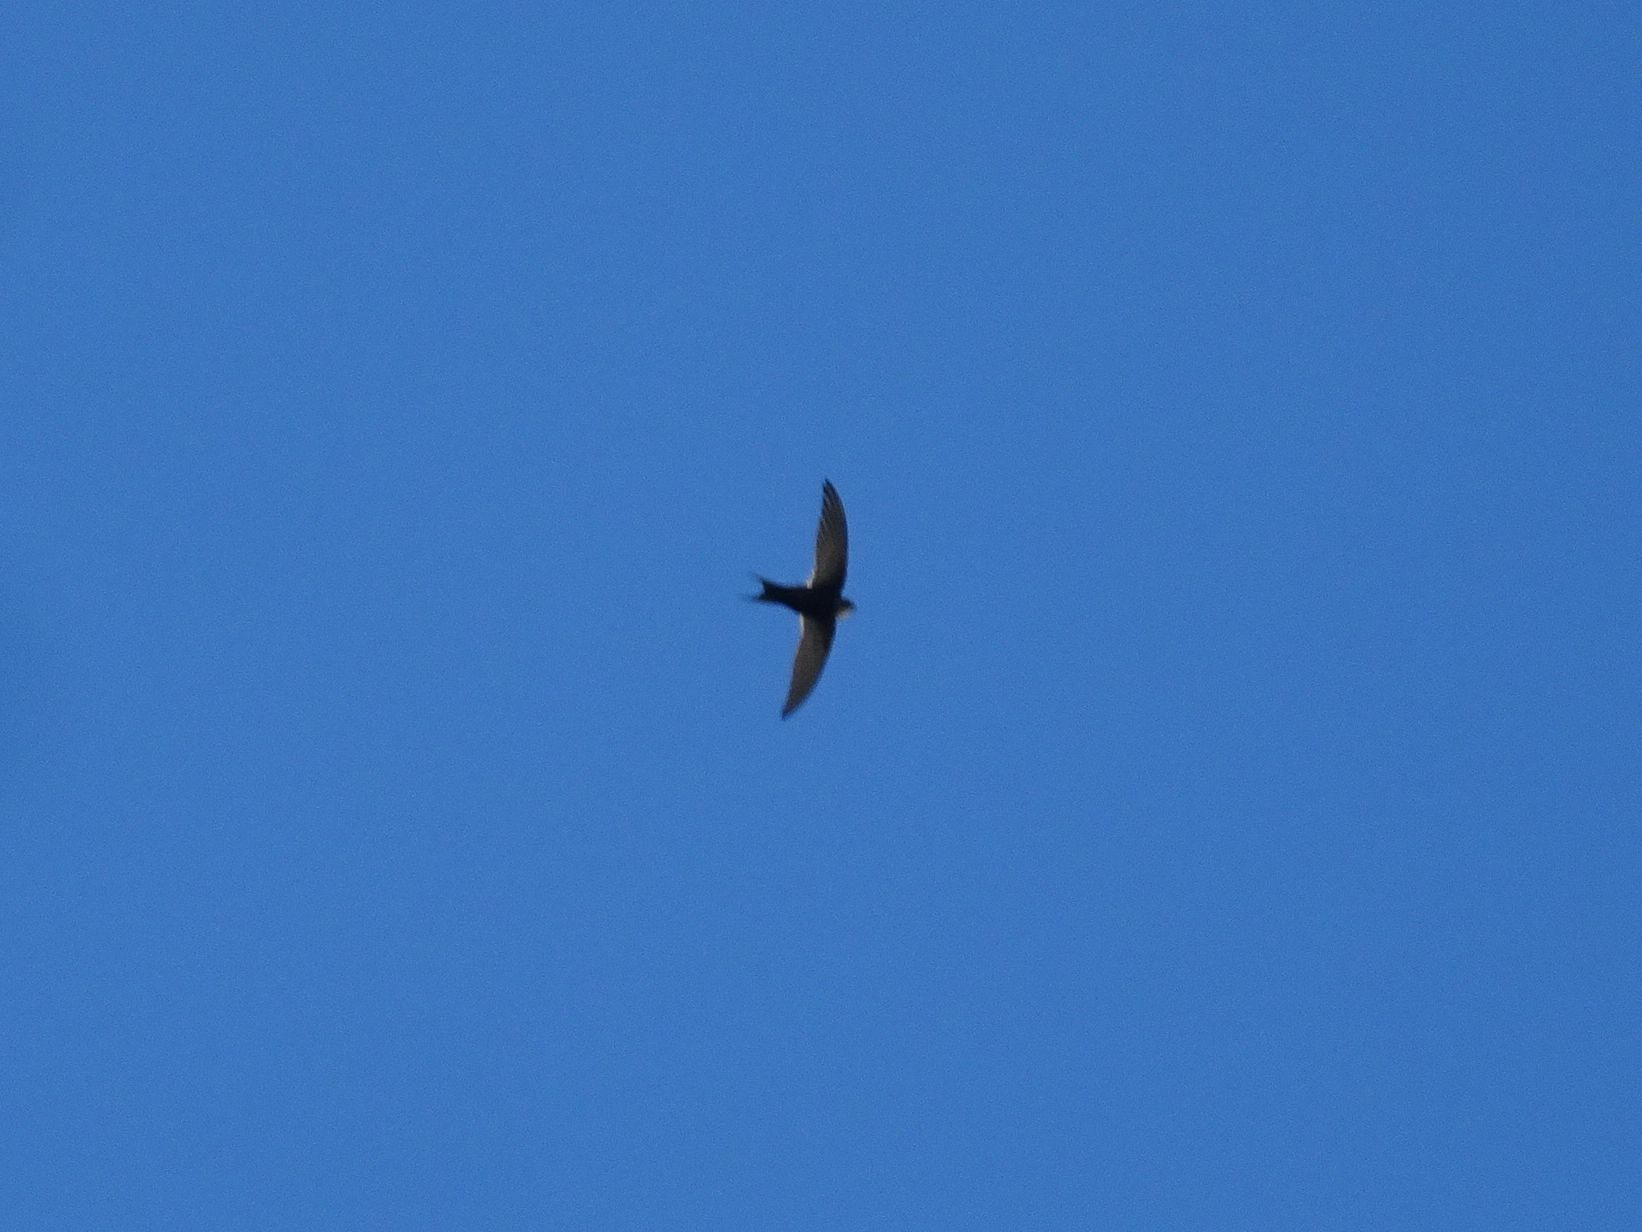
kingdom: Animalia
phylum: Chordata
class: Aves
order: Apodiformes
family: Apodidae
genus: Apus
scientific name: Apus caffer
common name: White-rumped swift
